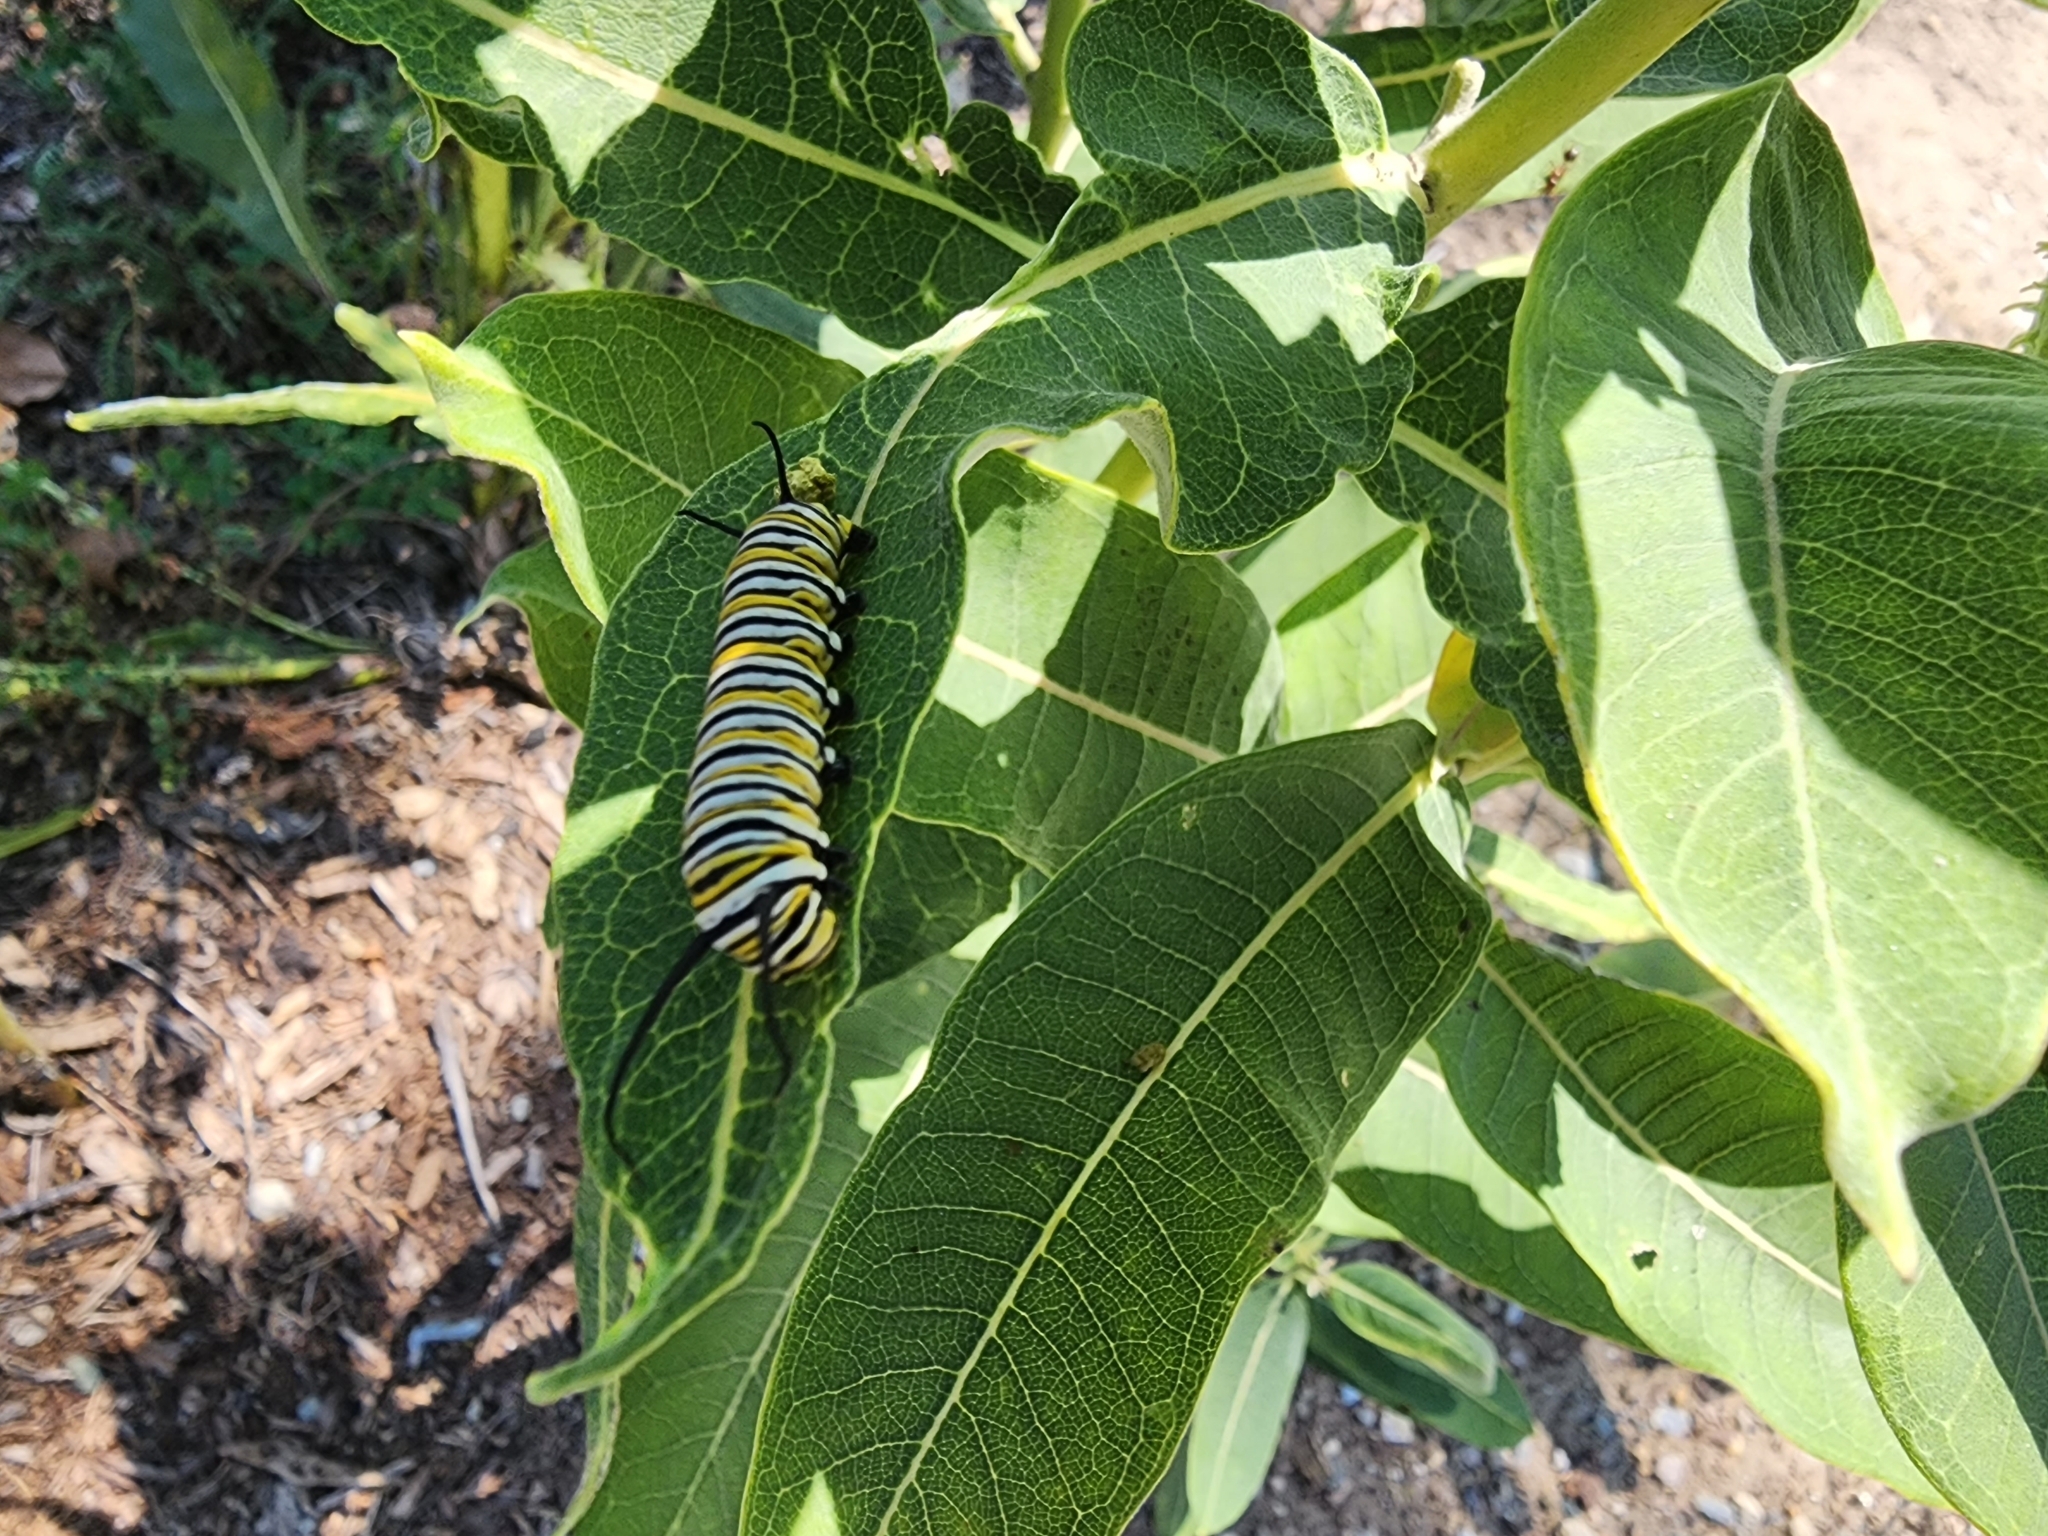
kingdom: Animalia
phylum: Arthropoda
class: Insecta
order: Lepidoptera
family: Nymphalidae
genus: Danaus
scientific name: Danaus plexippus
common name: Monarch
